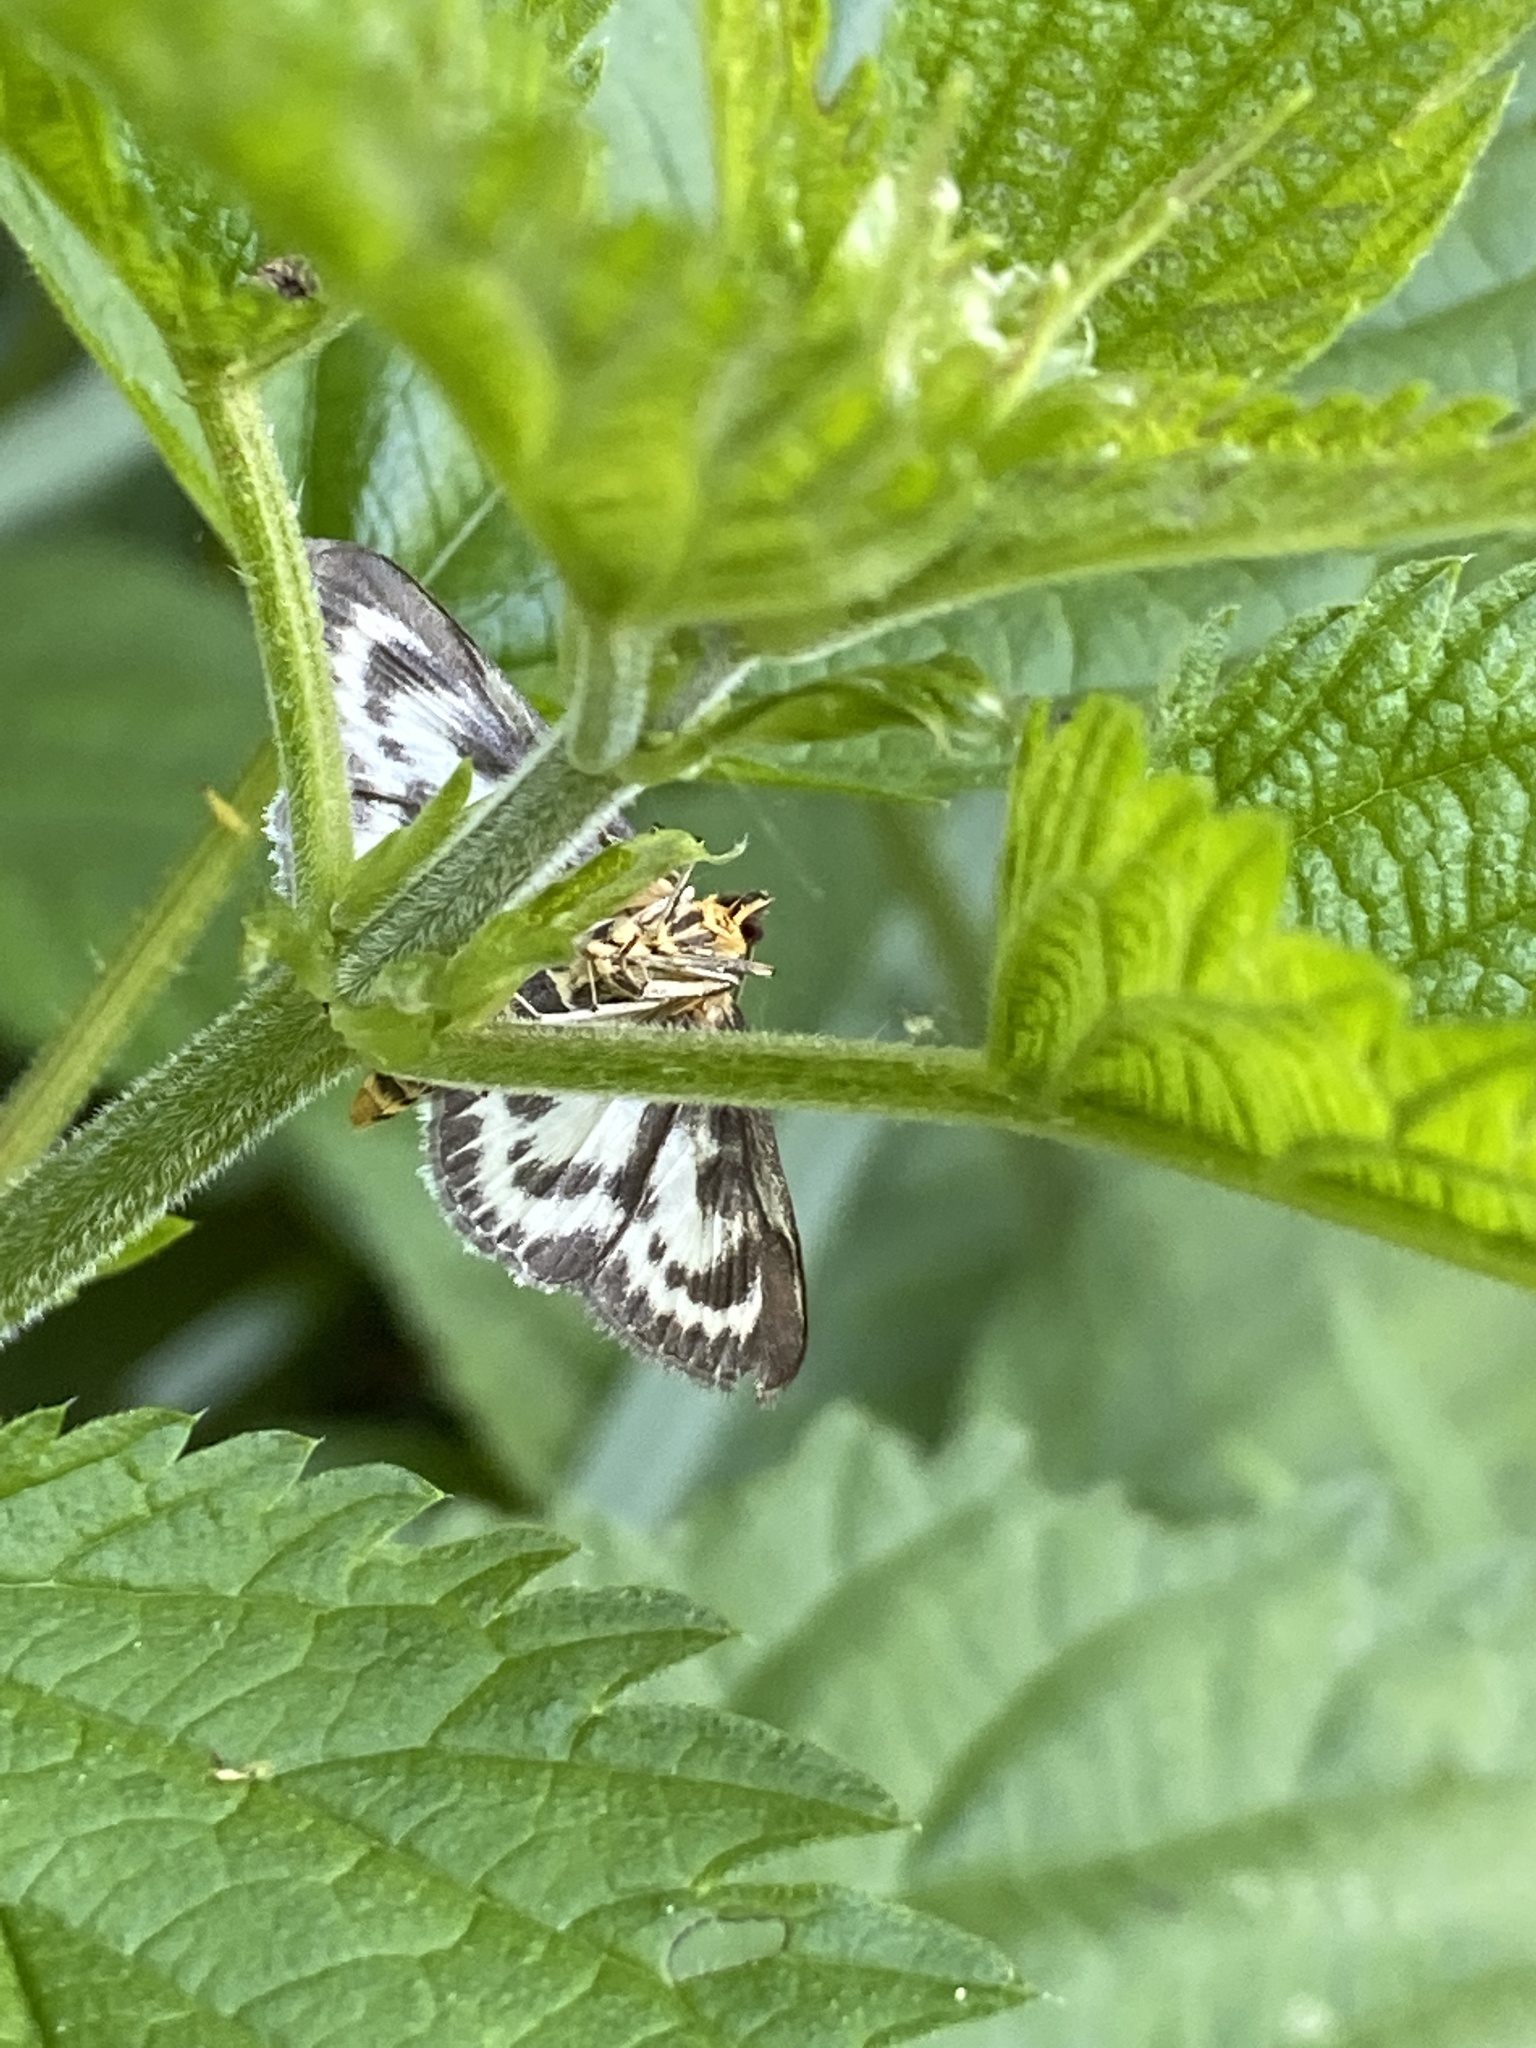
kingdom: Animalia
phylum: Arthropoda
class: Insecta
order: Lepidoptera
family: Crambidae
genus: Anania
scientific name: Anania hortulata
